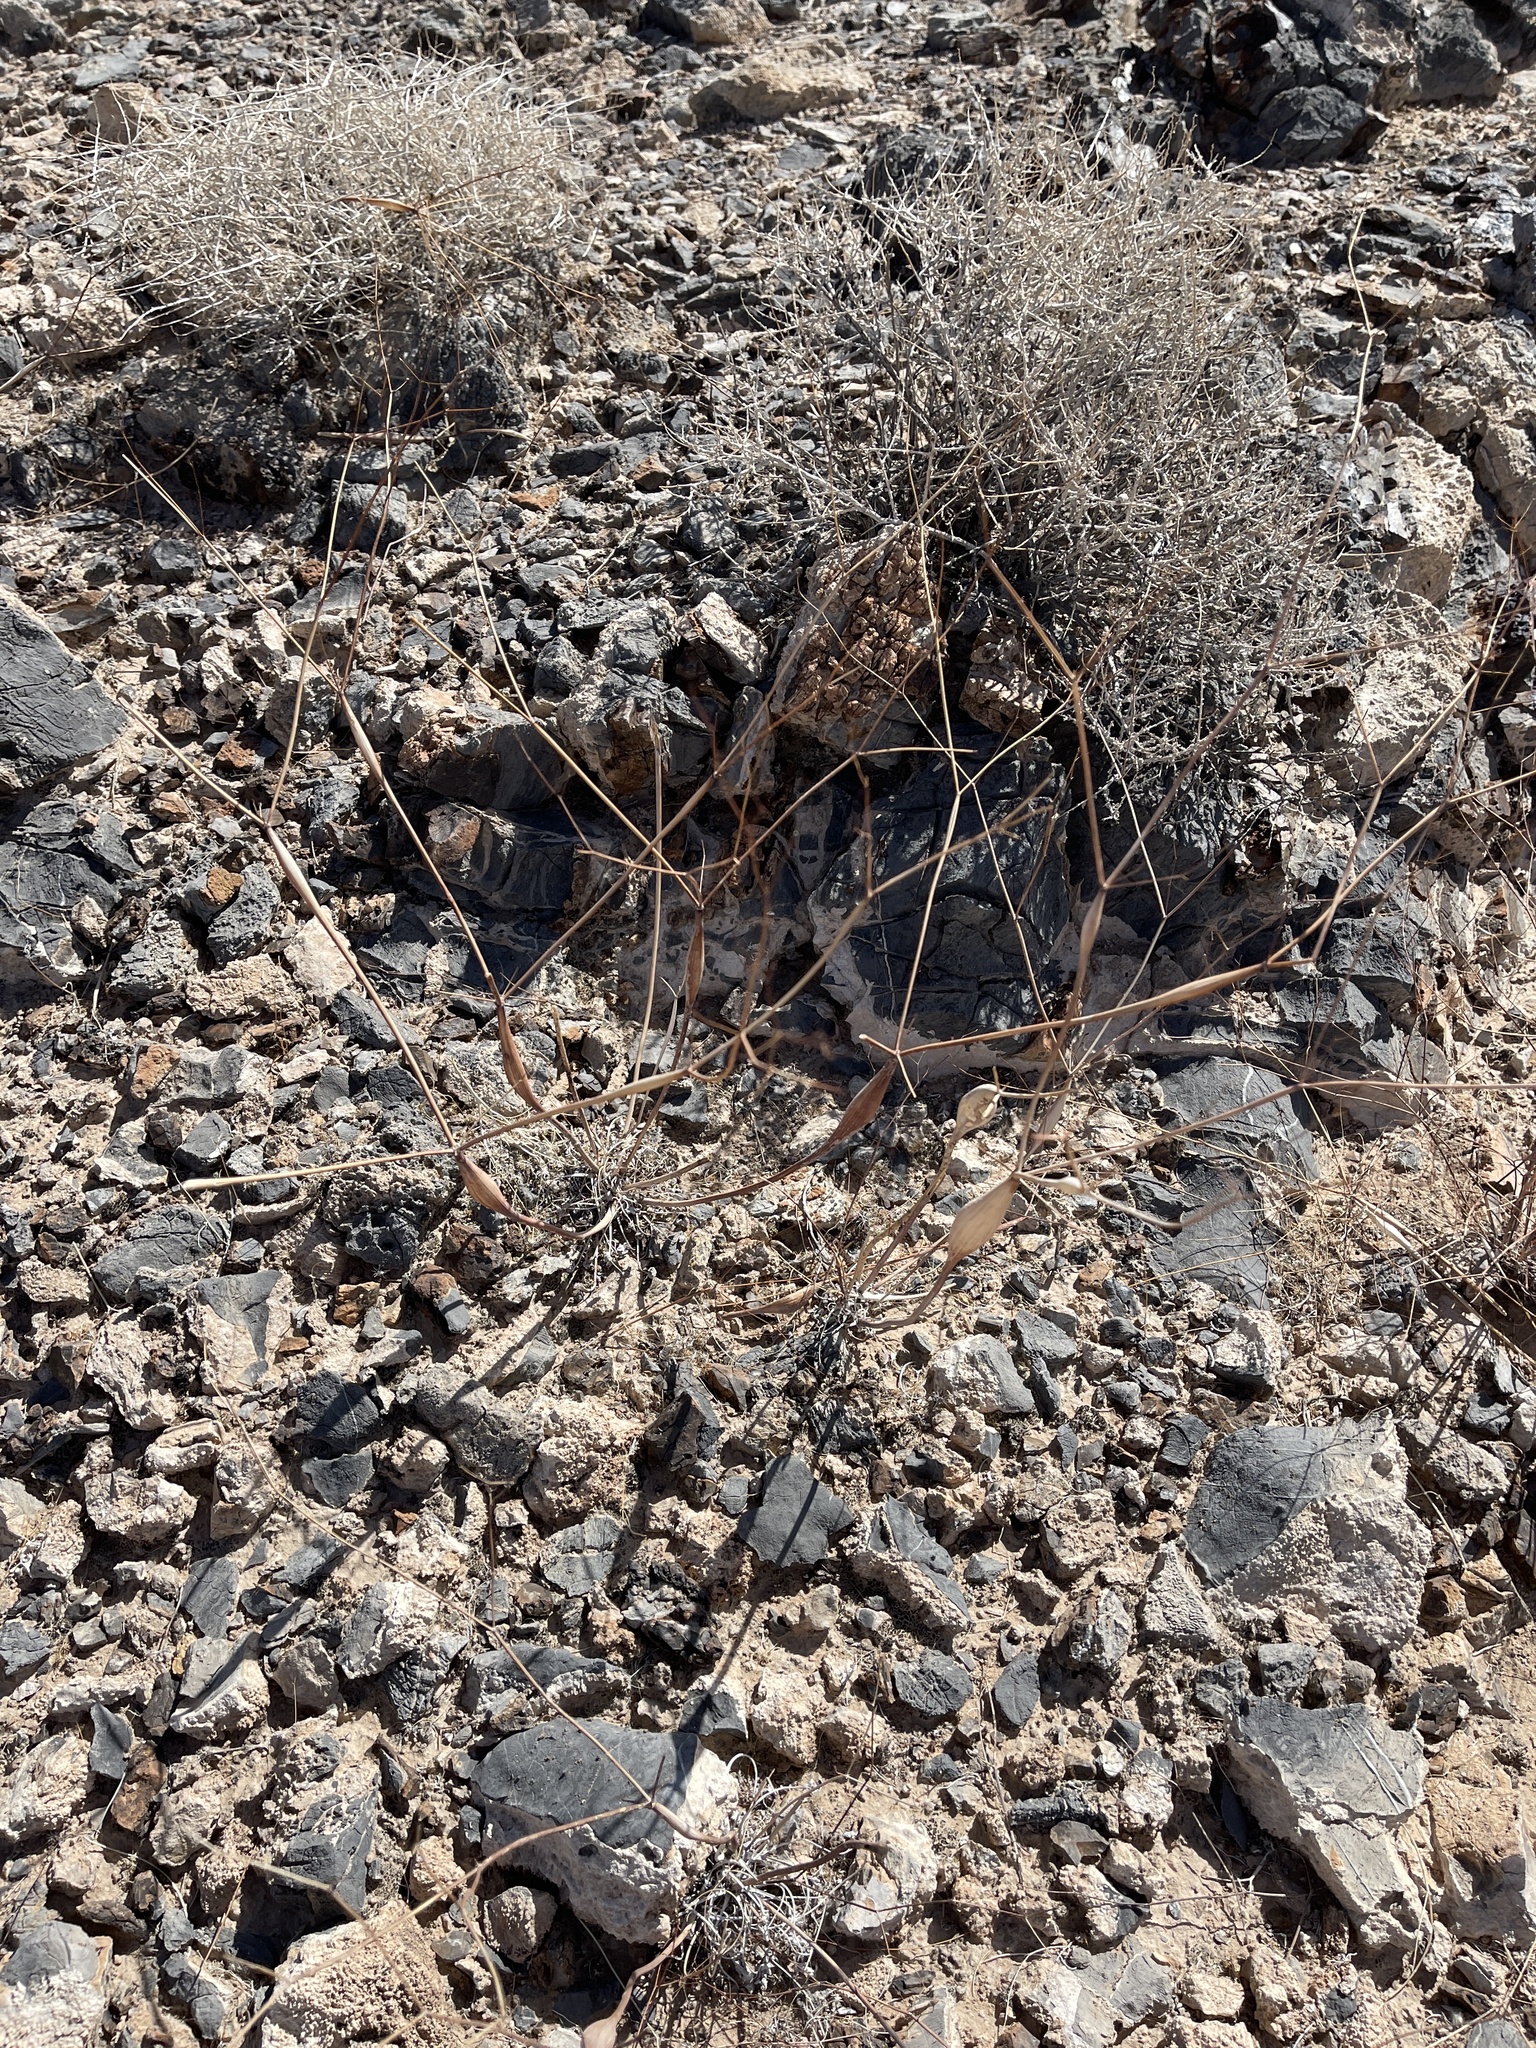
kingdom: Plantae
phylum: Tracheophyta
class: Magnoliopsida
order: Caryophyllales
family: Polygonaceae
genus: Eriogonum
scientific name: Eriogonum inflatum
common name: Desert trumpet
